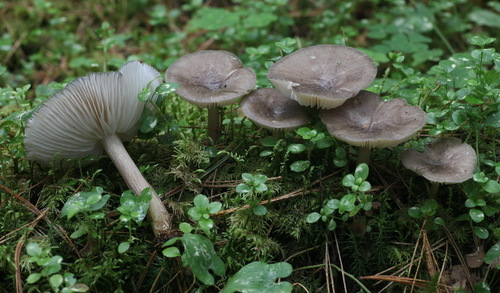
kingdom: Fungi
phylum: Basidiomycota
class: Agaricomycetes
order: Agaricales
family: Tricholomataceae
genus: Megacollybia
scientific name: Megacollybia platyphylla
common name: Whitelaced shank
